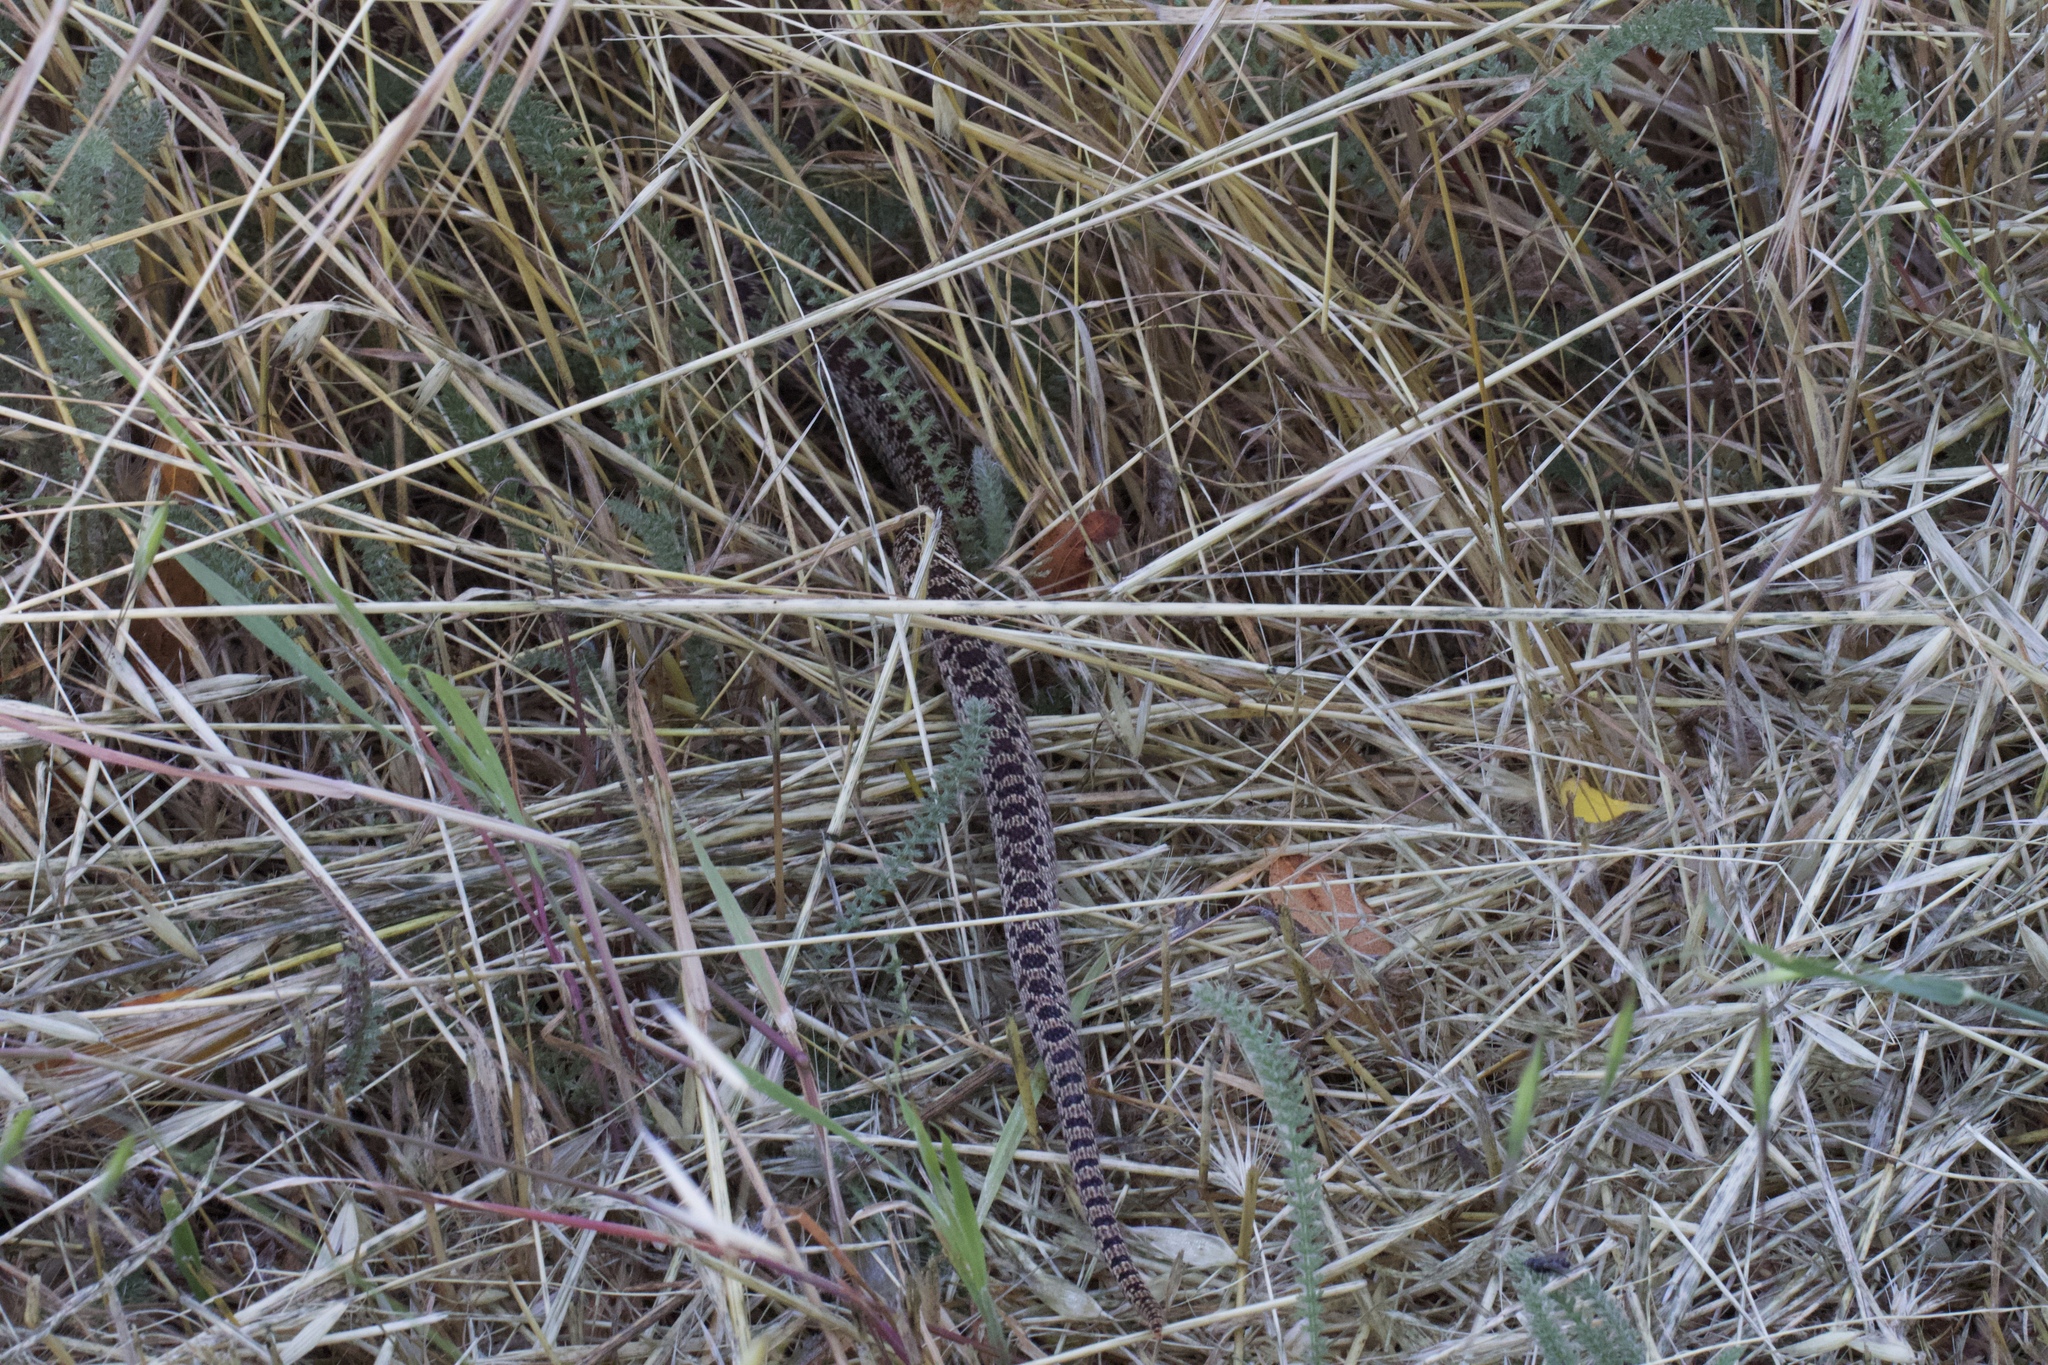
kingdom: Animalia
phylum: Chordata
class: Squamata
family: Colubridae
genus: Pituophis
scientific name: Pituophis catenifer
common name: Gopher snake
